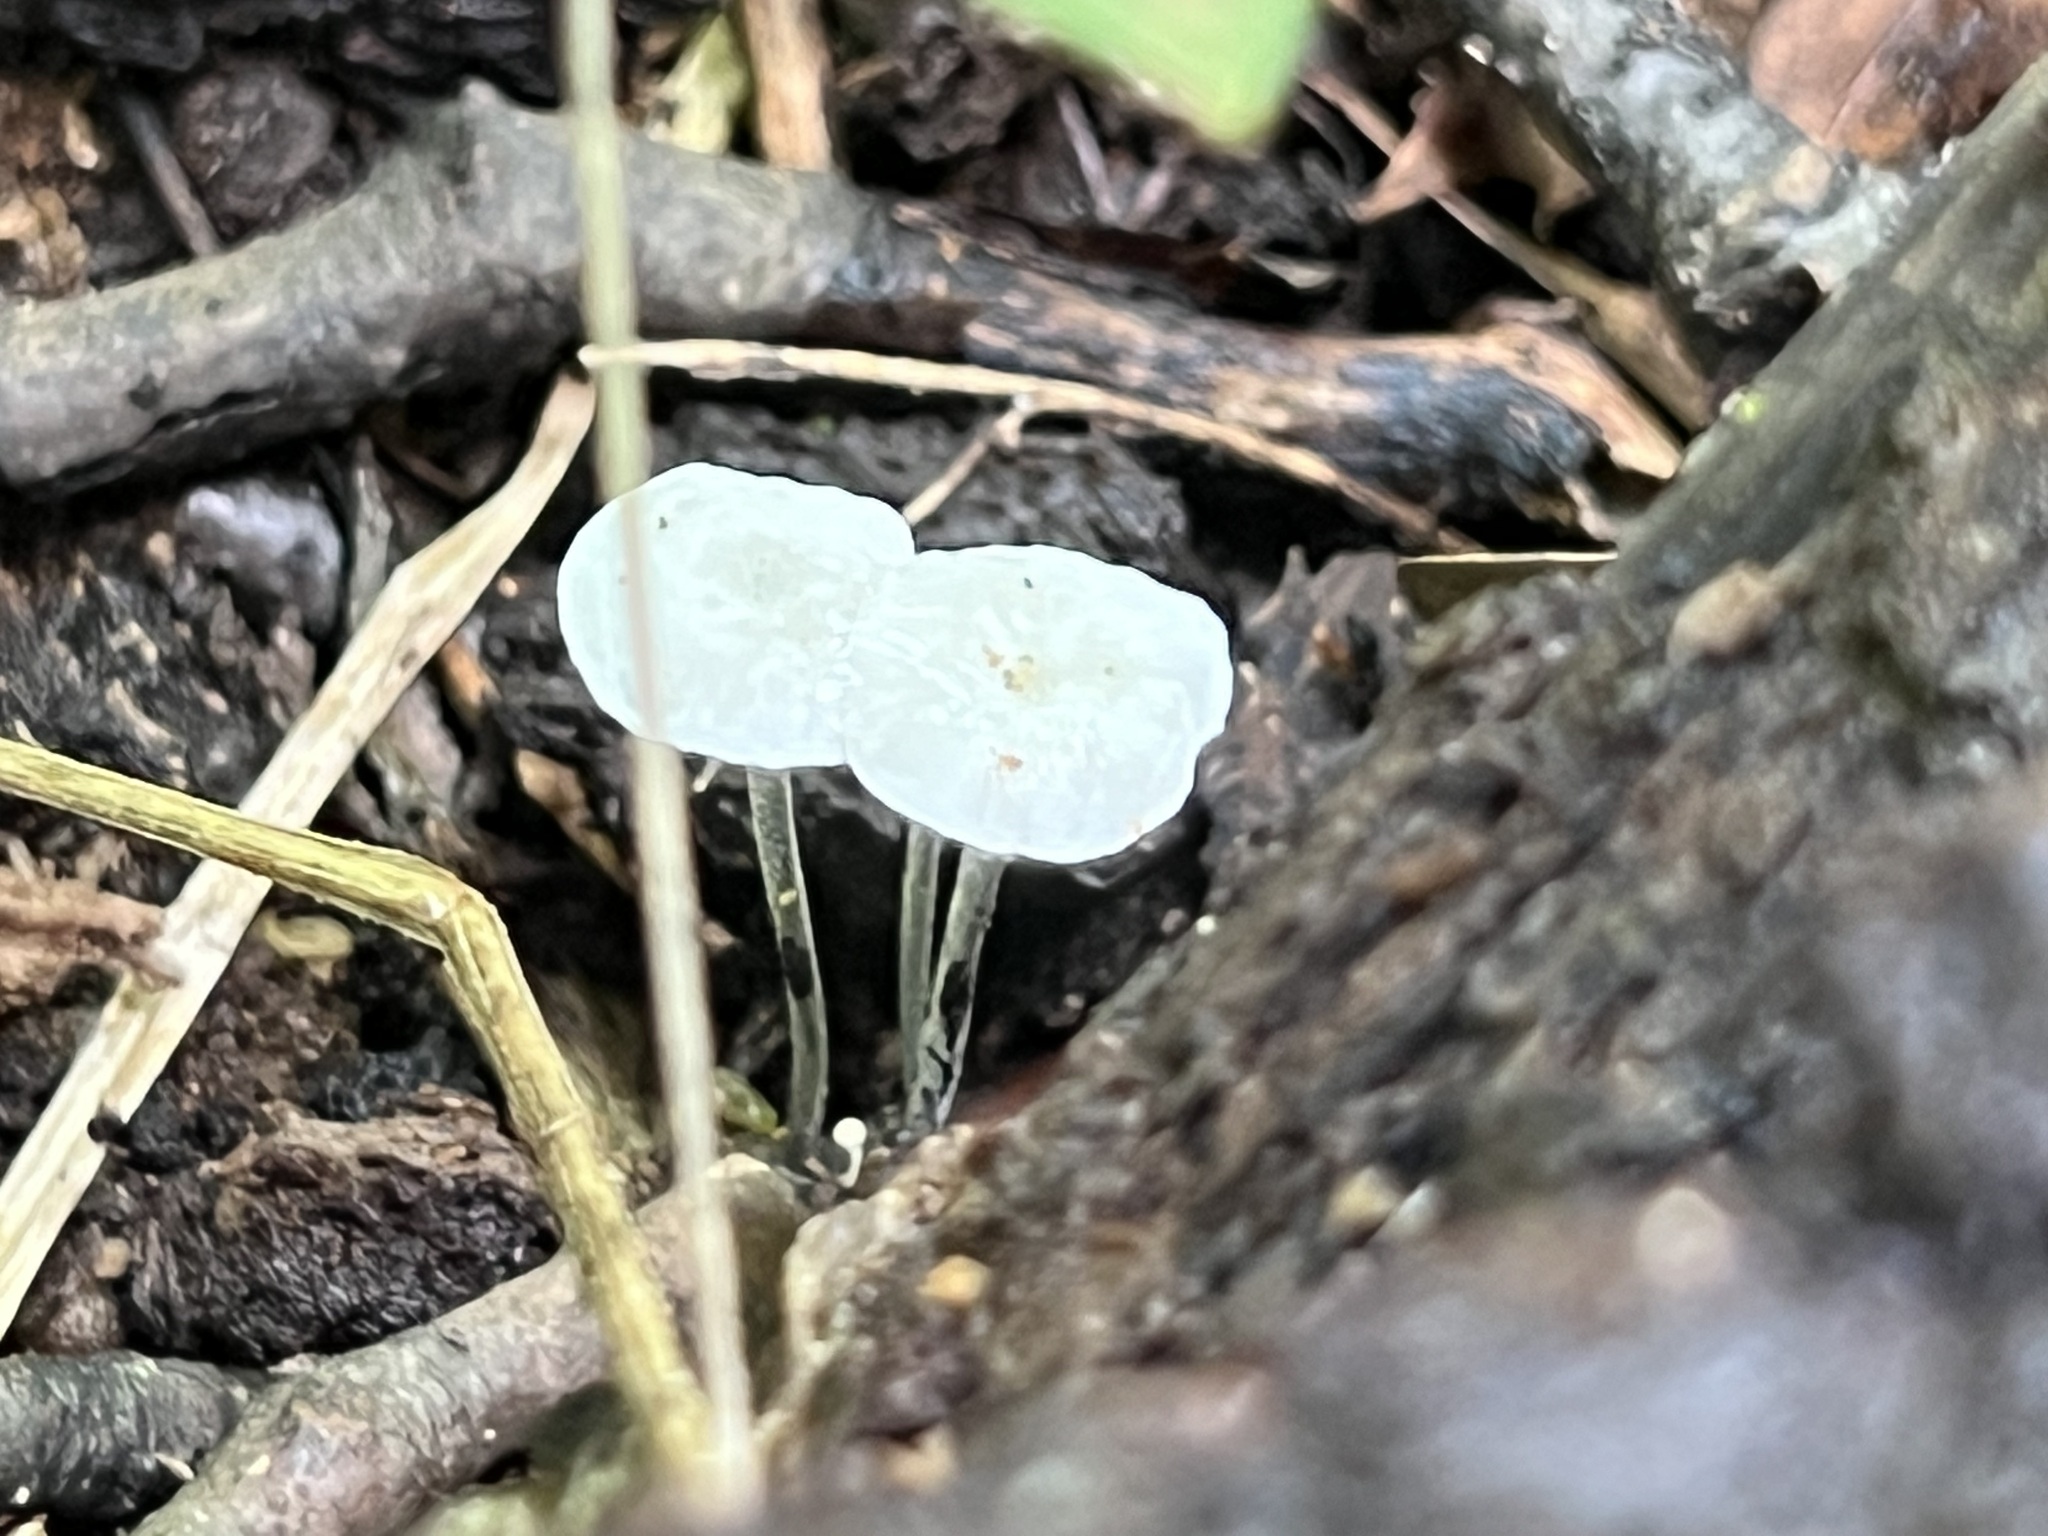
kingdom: Fungi
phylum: Basidiomycota
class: Agaricomycetes
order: Agaricales
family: Marasmiaceae
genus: Tetrapyrgos
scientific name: Tetrapyrgos nigripes
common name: Black-stalked marasmius
